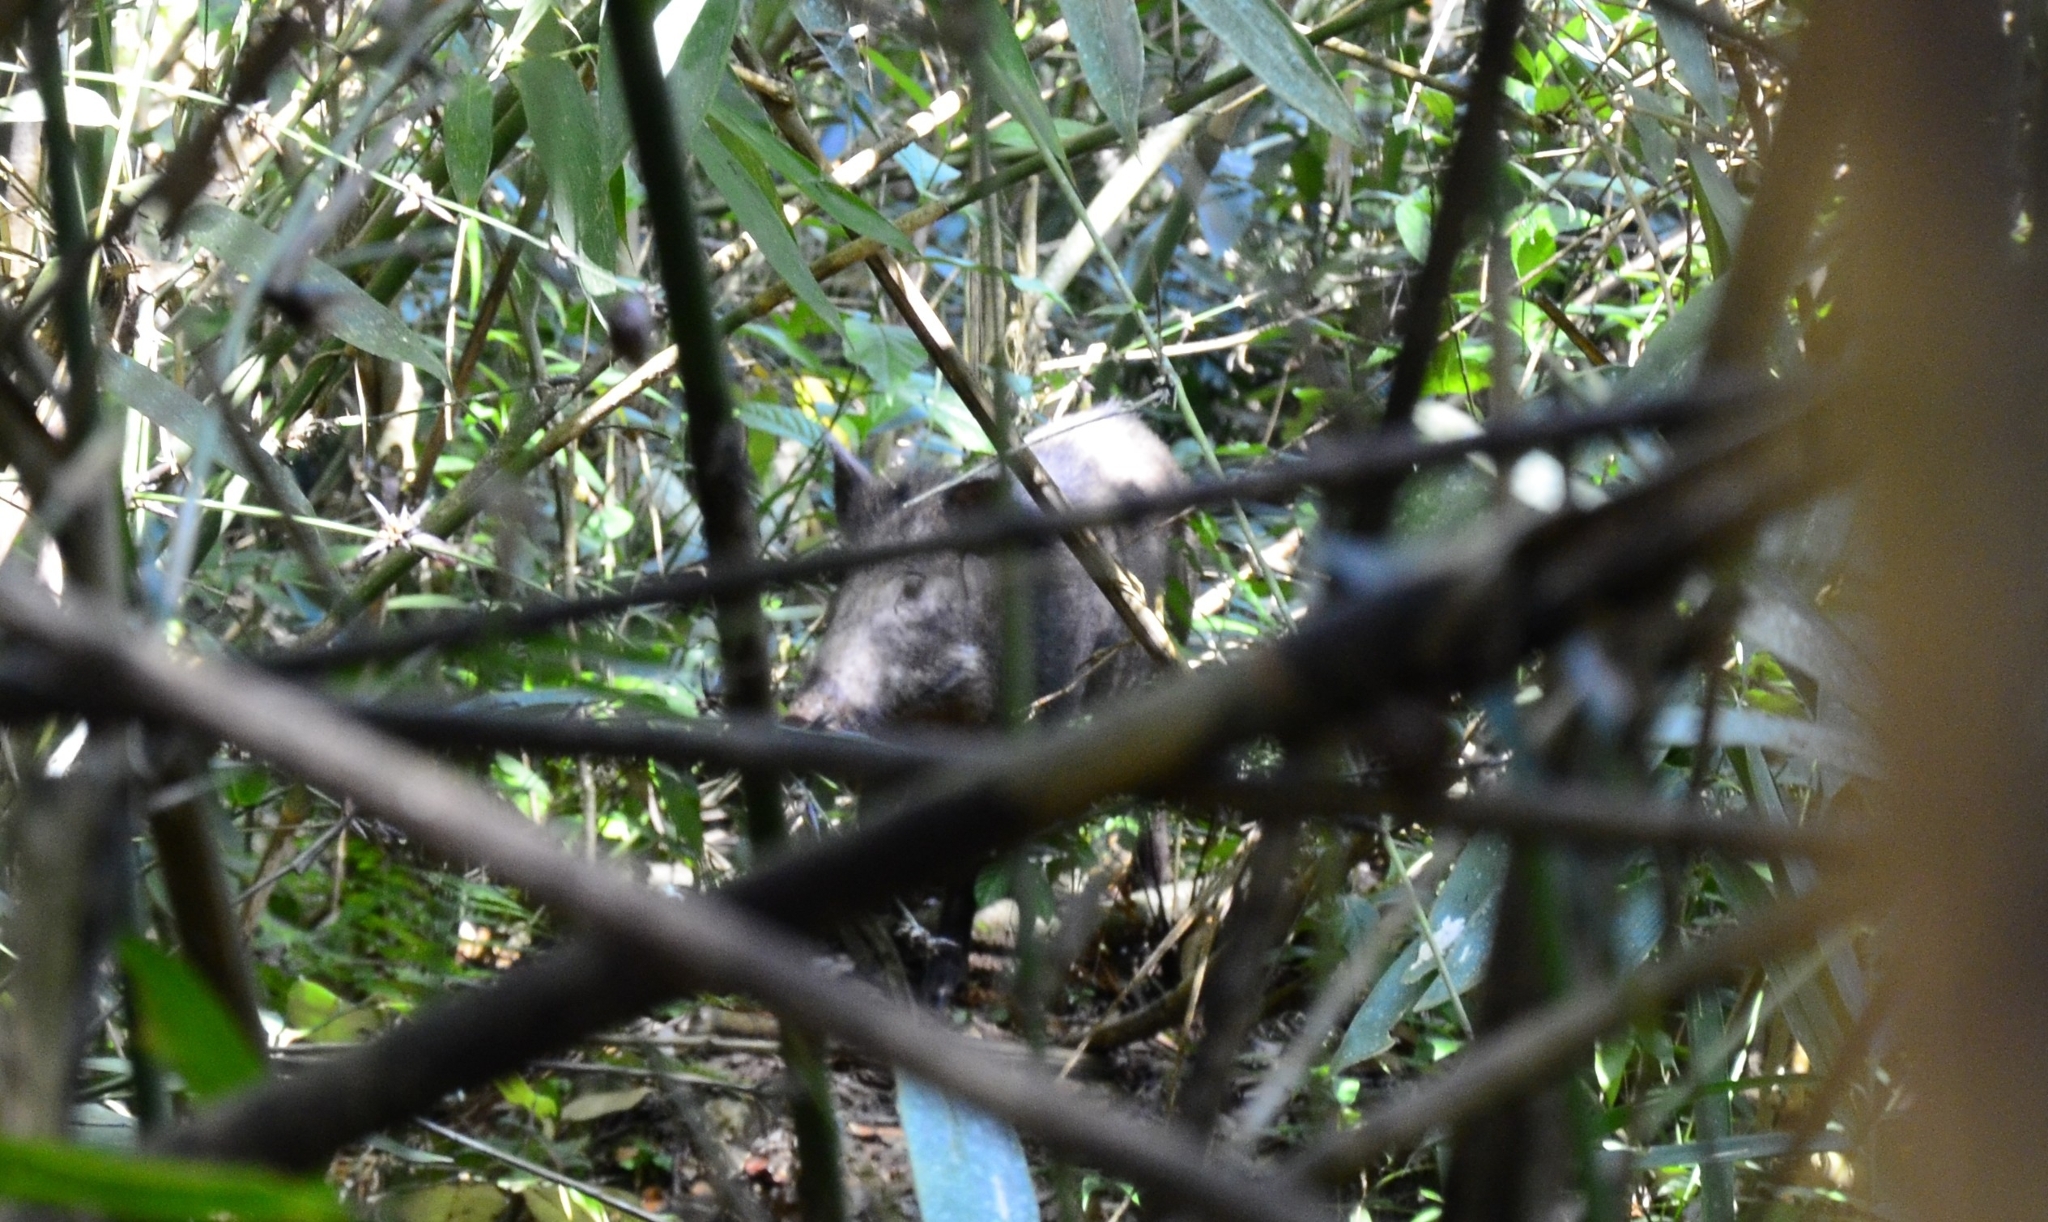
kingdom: Animalia
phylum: Chordata
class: Mammalia
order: Artiodactyla
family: Suidae
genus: Sus
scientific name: Sus scrofa
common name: Wild boar
